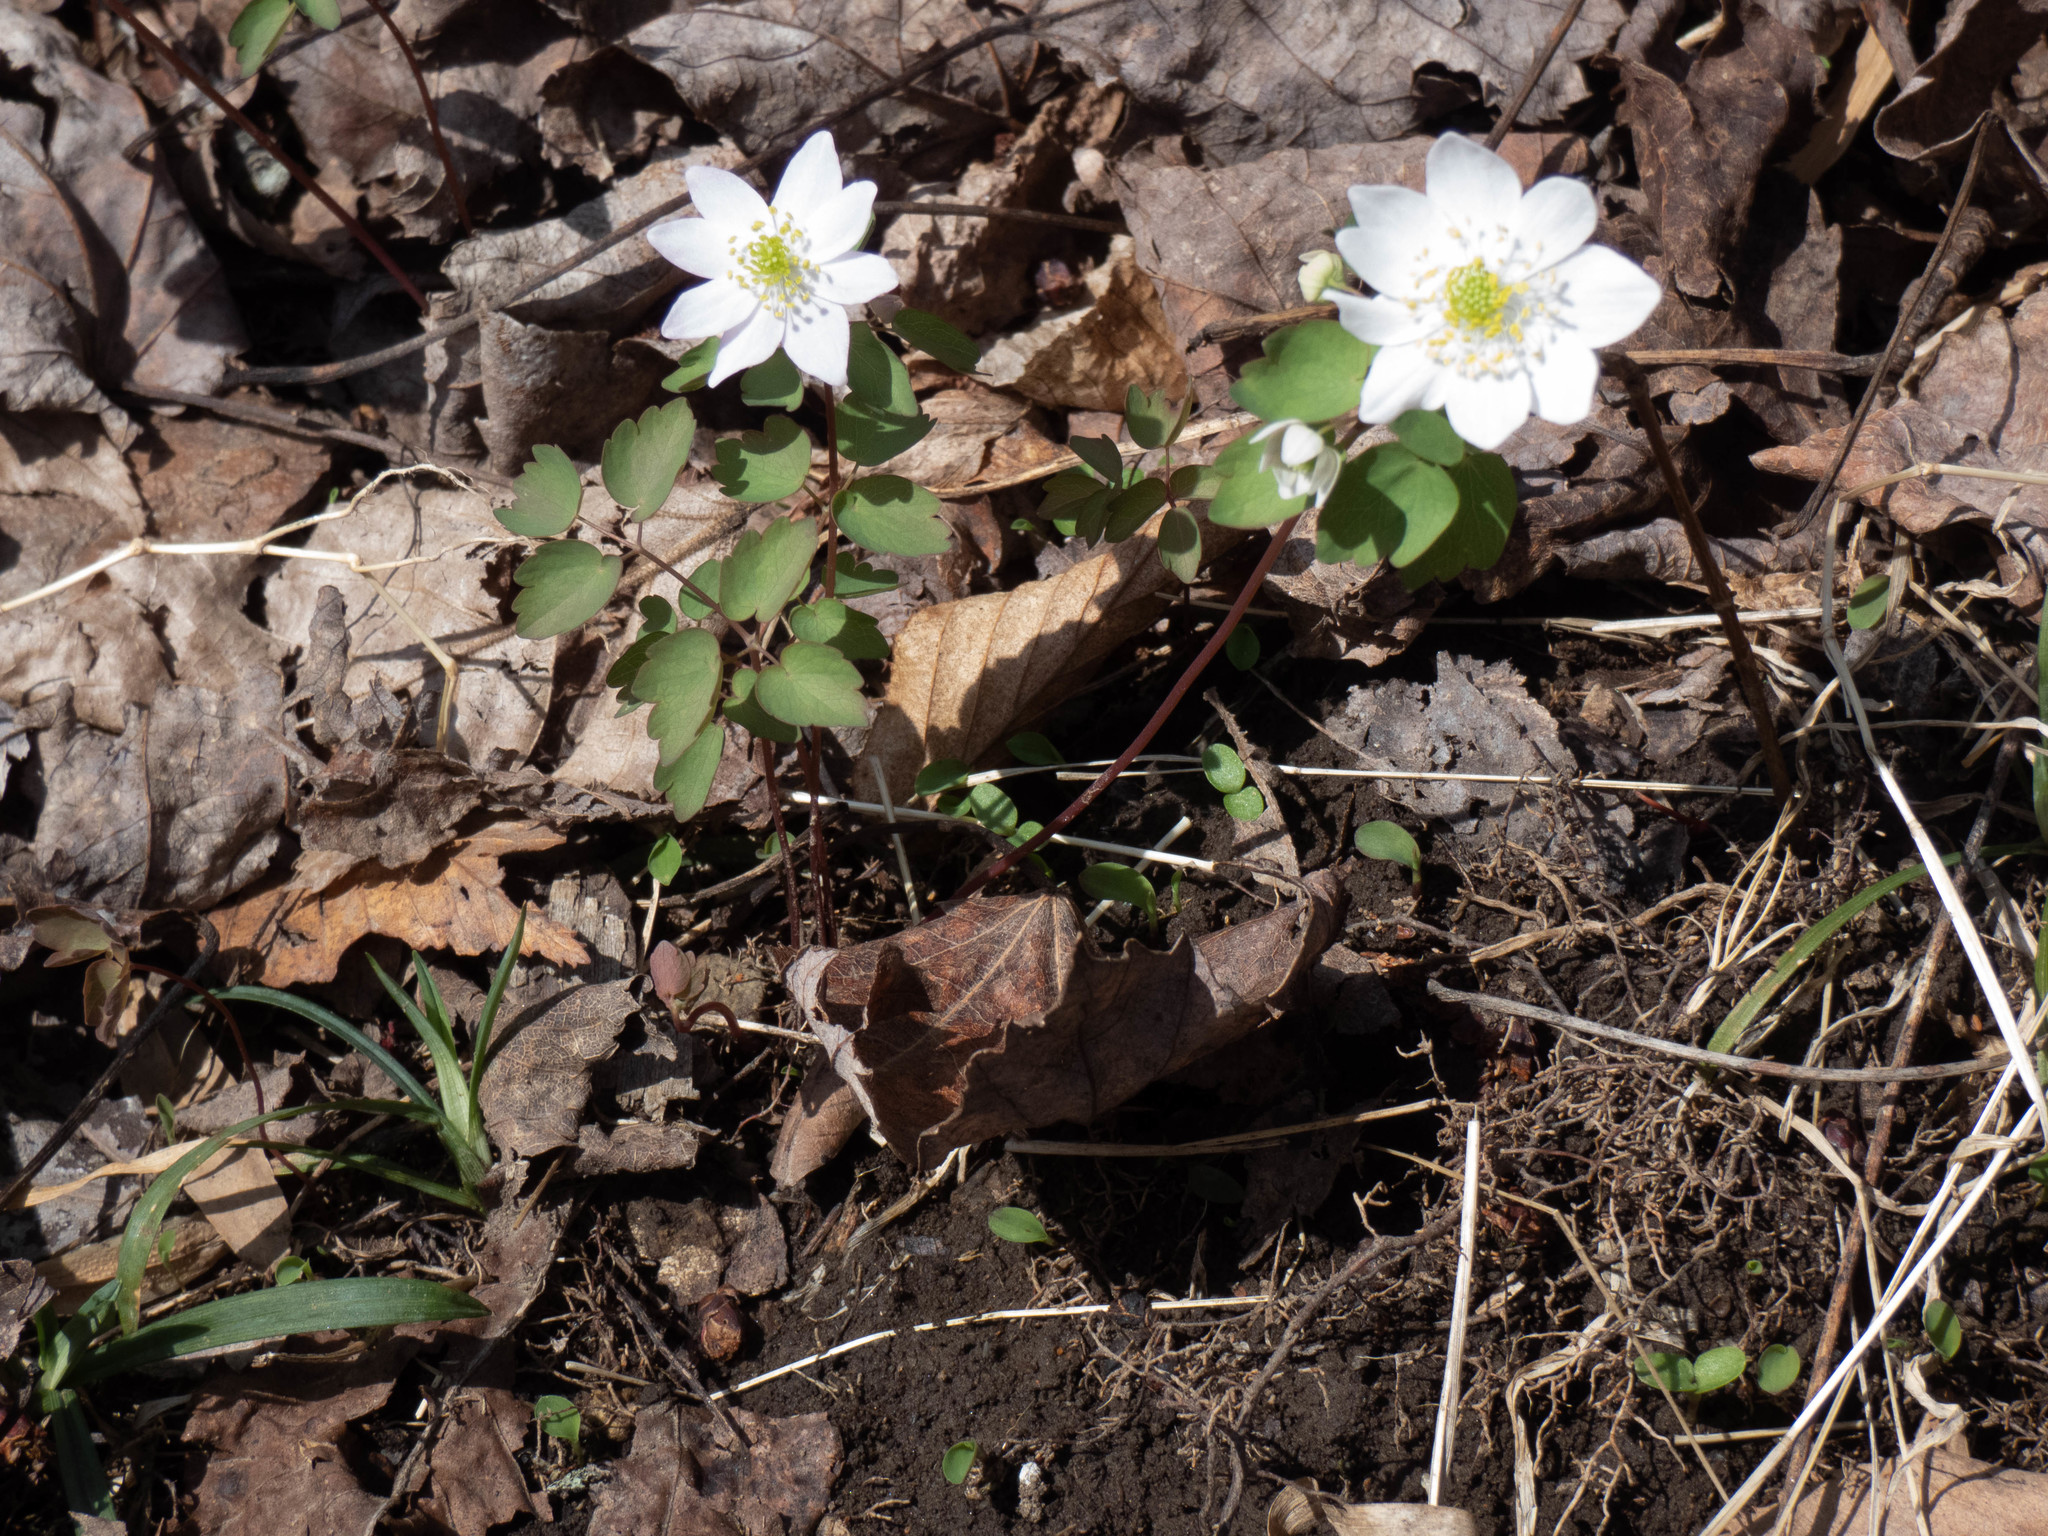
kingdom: Plantae
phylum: Tracheophyta
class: Magnoliopsida
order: Ranunculales
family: Ranunculaceae
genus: Thalictrum
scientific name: Thalictrum thalictroides
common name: Rue-anemone
